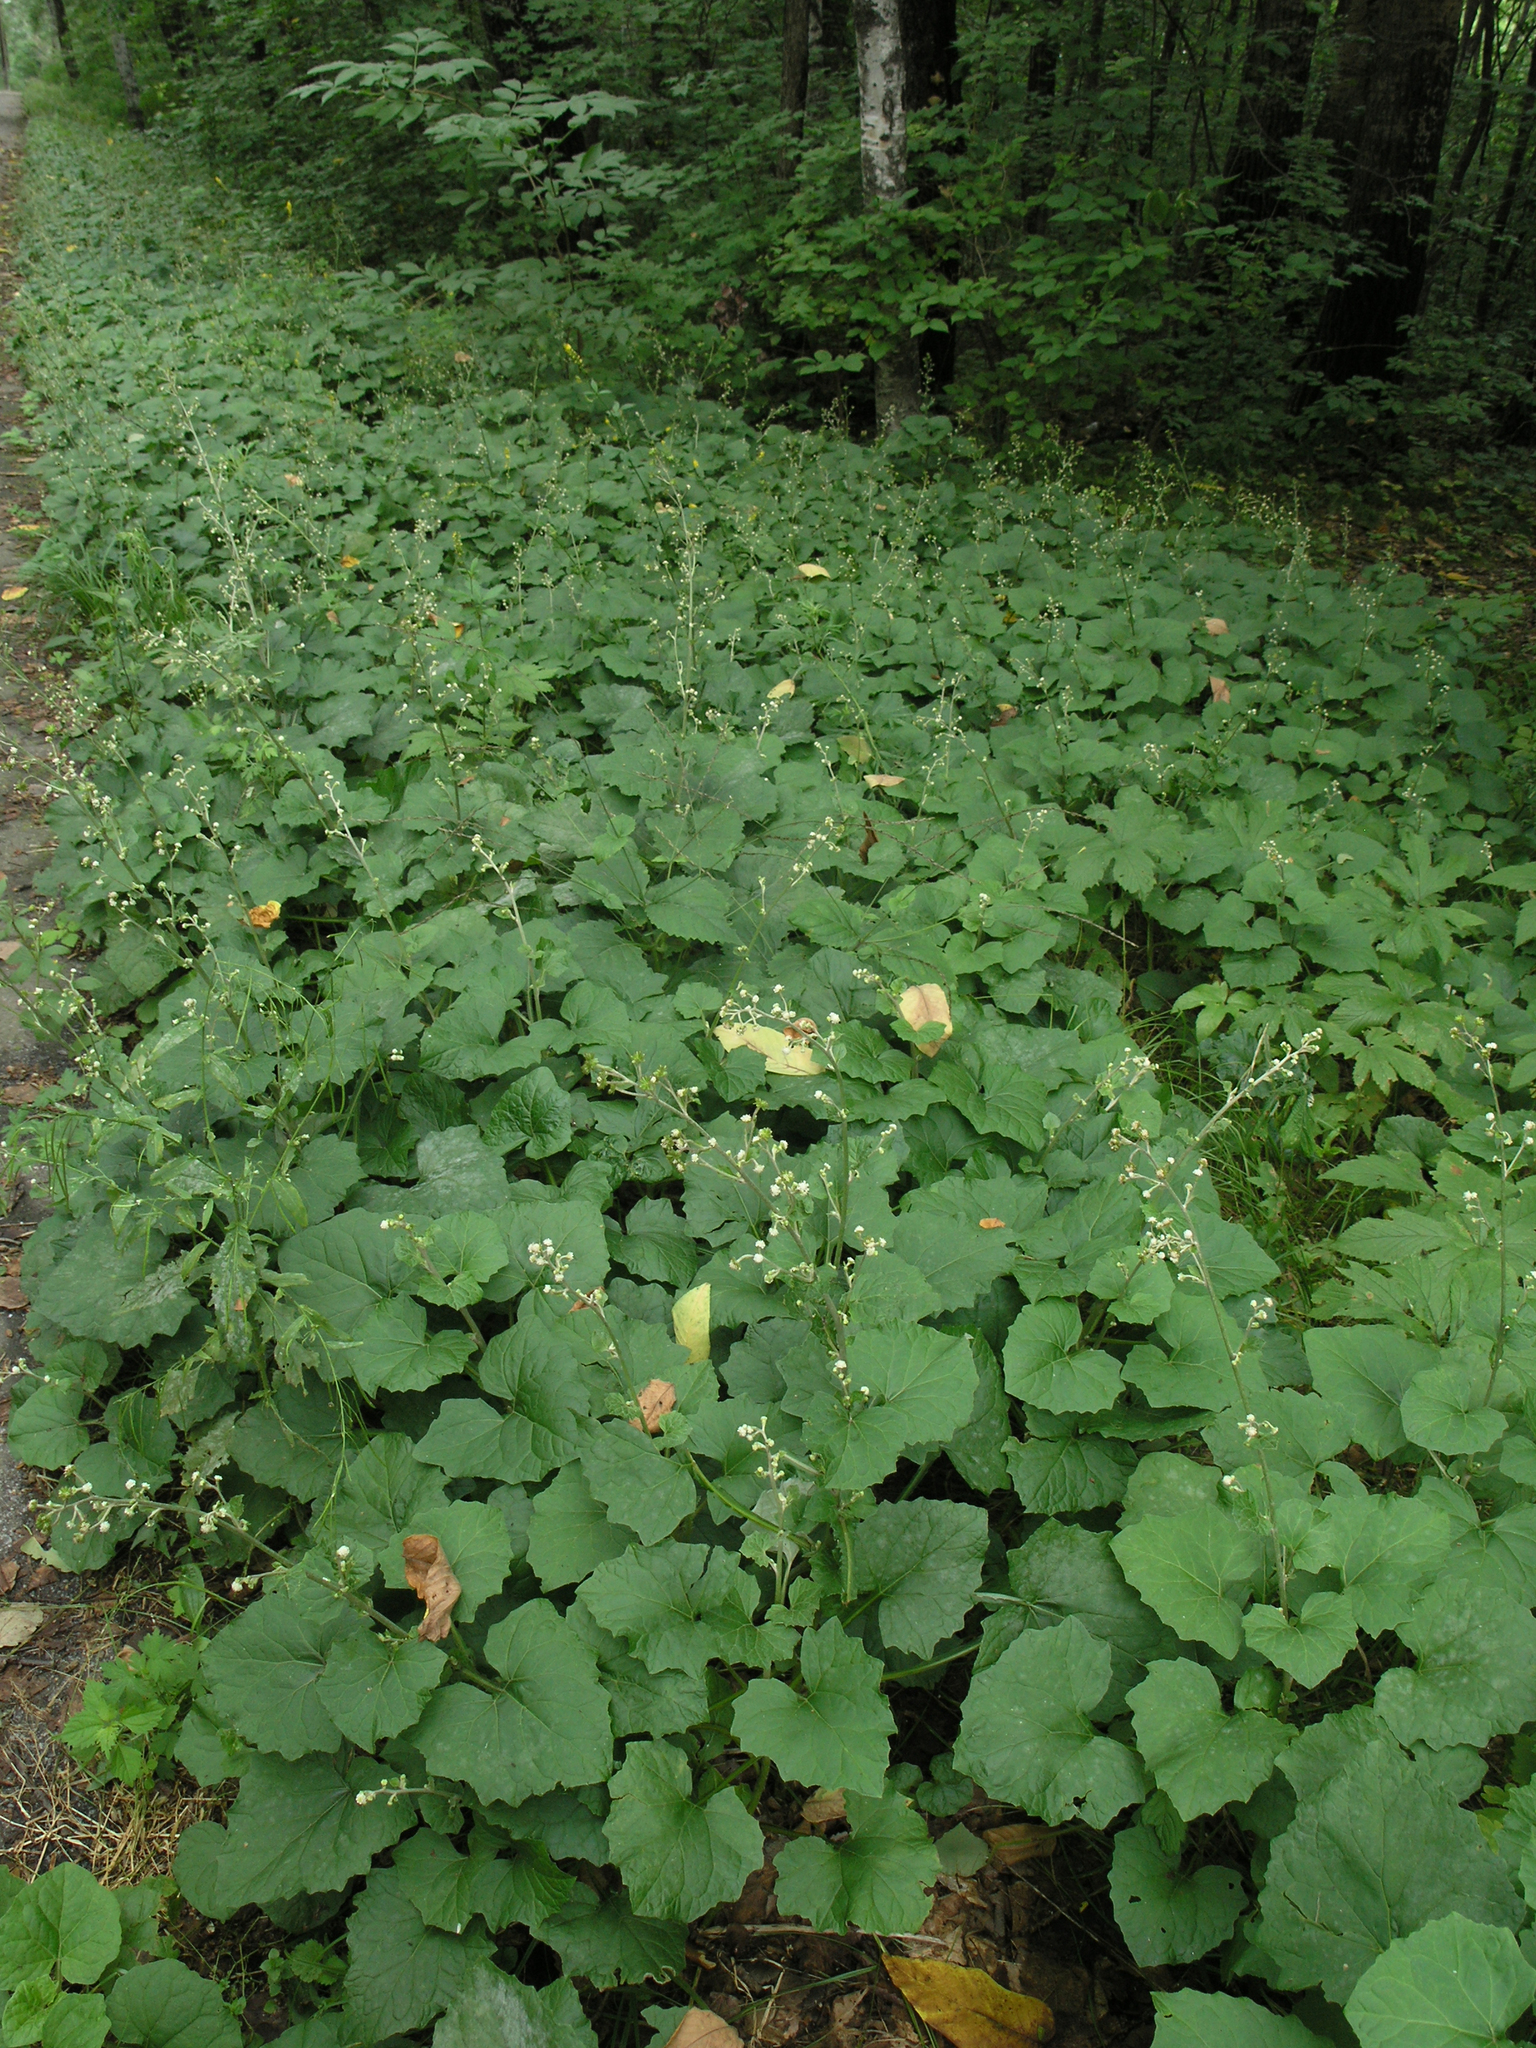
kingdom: Plantae
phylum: Tracheophyta
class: Magnoliopsida
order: Asterales
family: Asteraceae
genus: Adenocaulon
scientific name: Adenocaulon himalaicum
